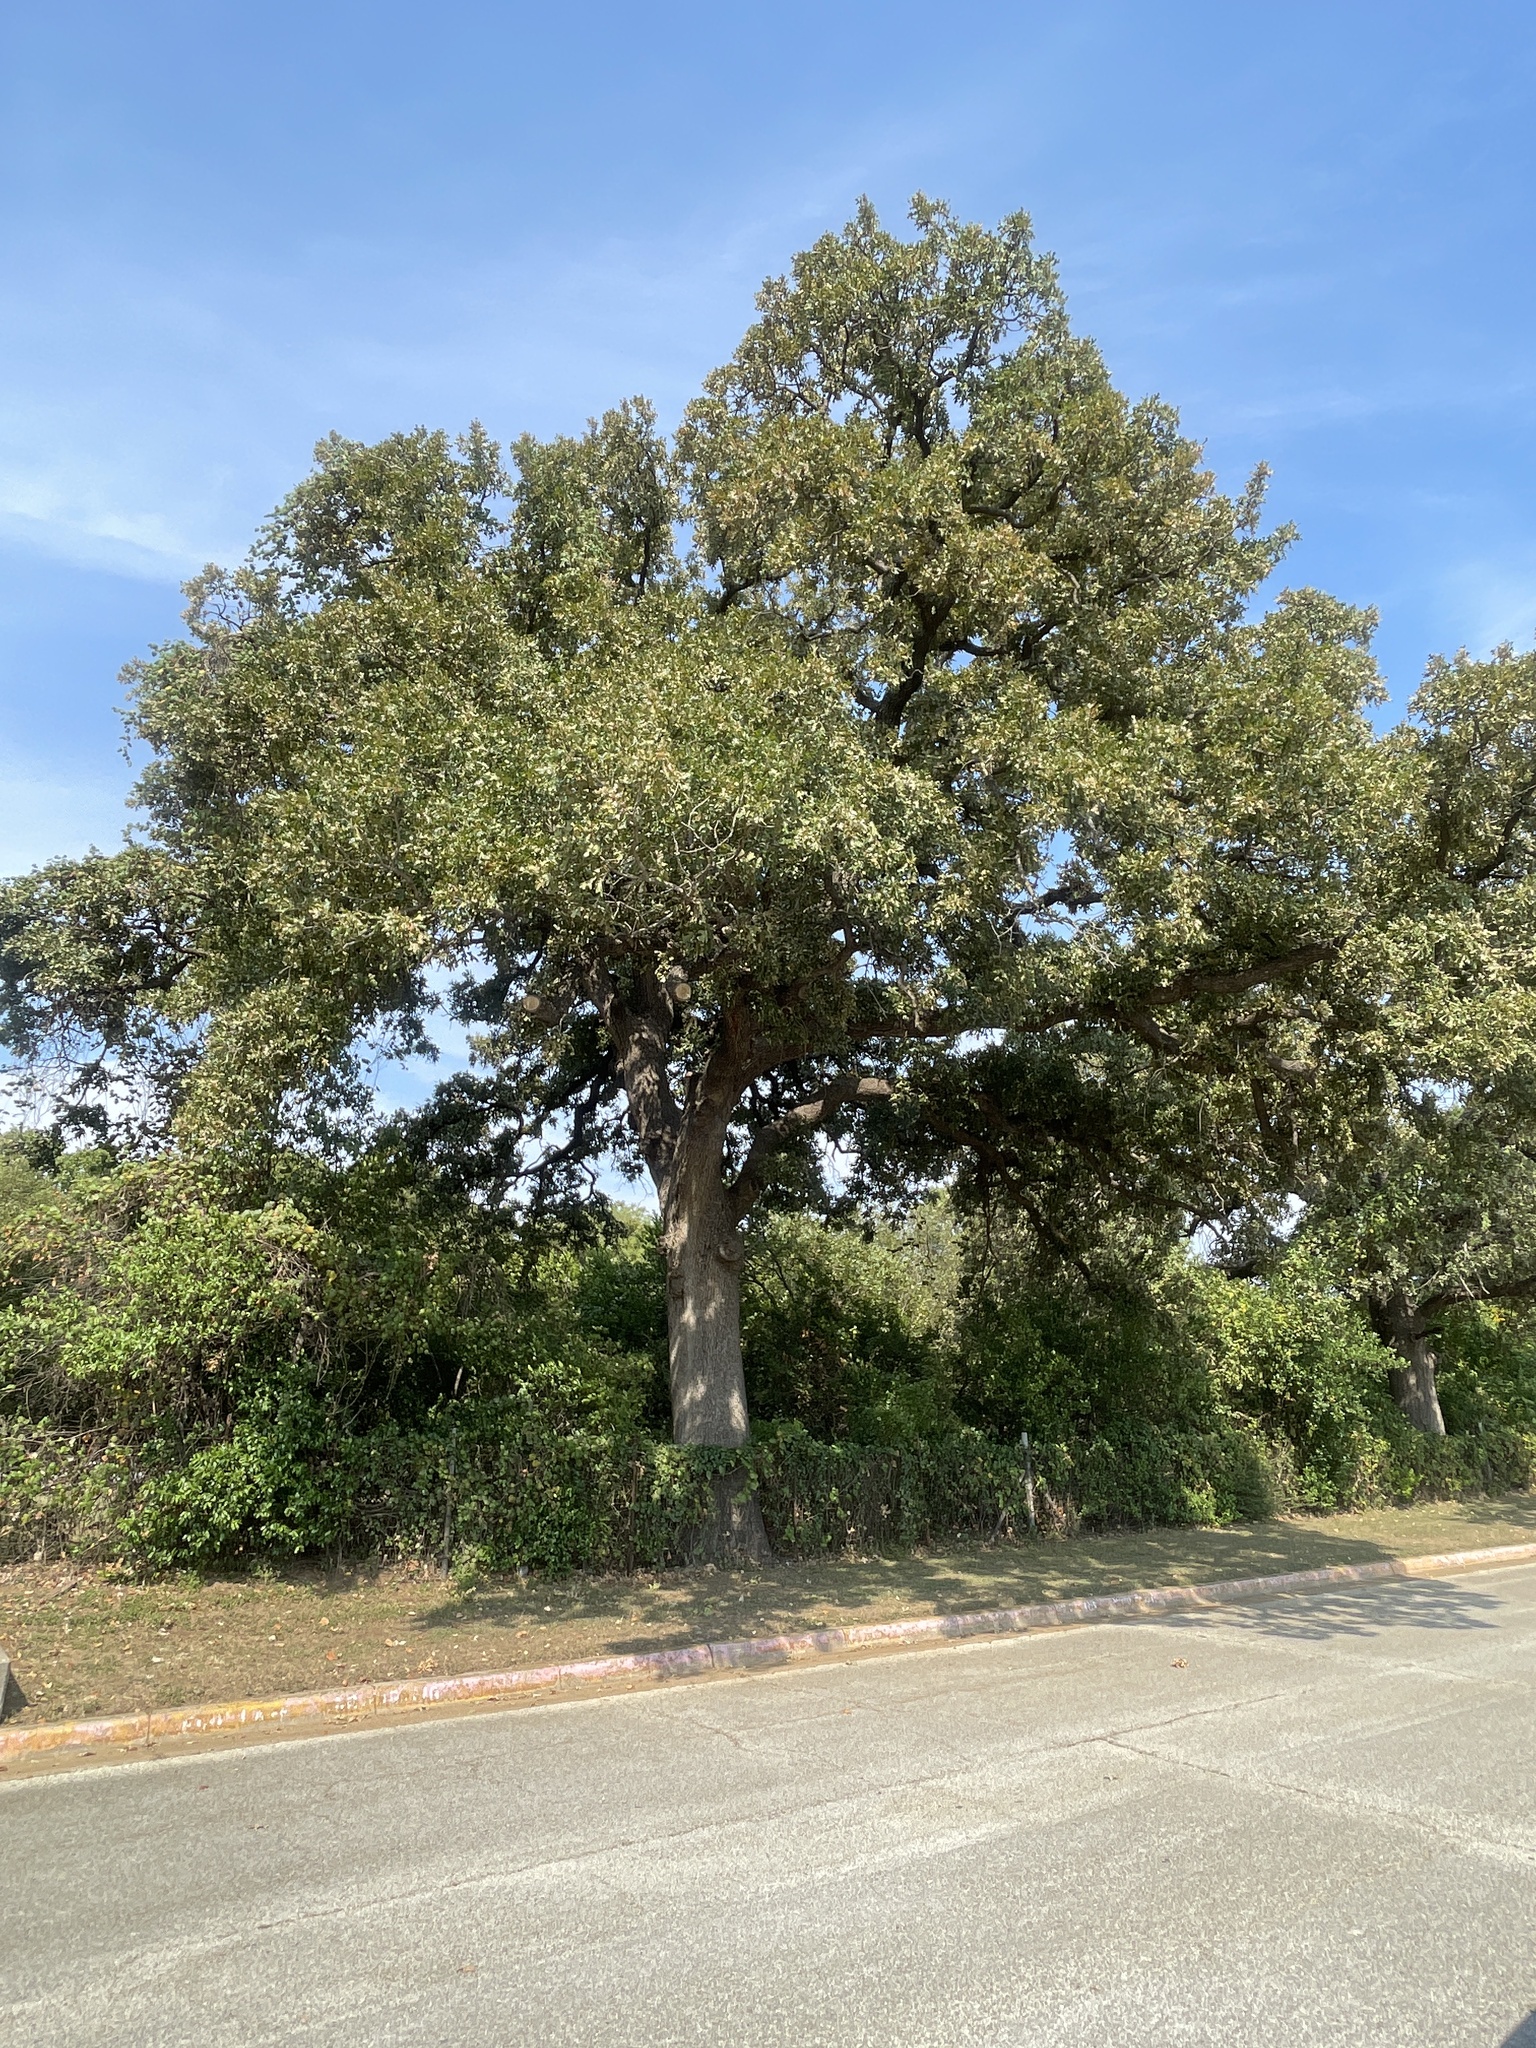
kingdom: Plantae
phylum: Tracheophyta
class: Magnoliopsida
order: Fagales
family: Fagaceae
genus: Quercus
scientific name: Quercus stellata
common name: Post oak
